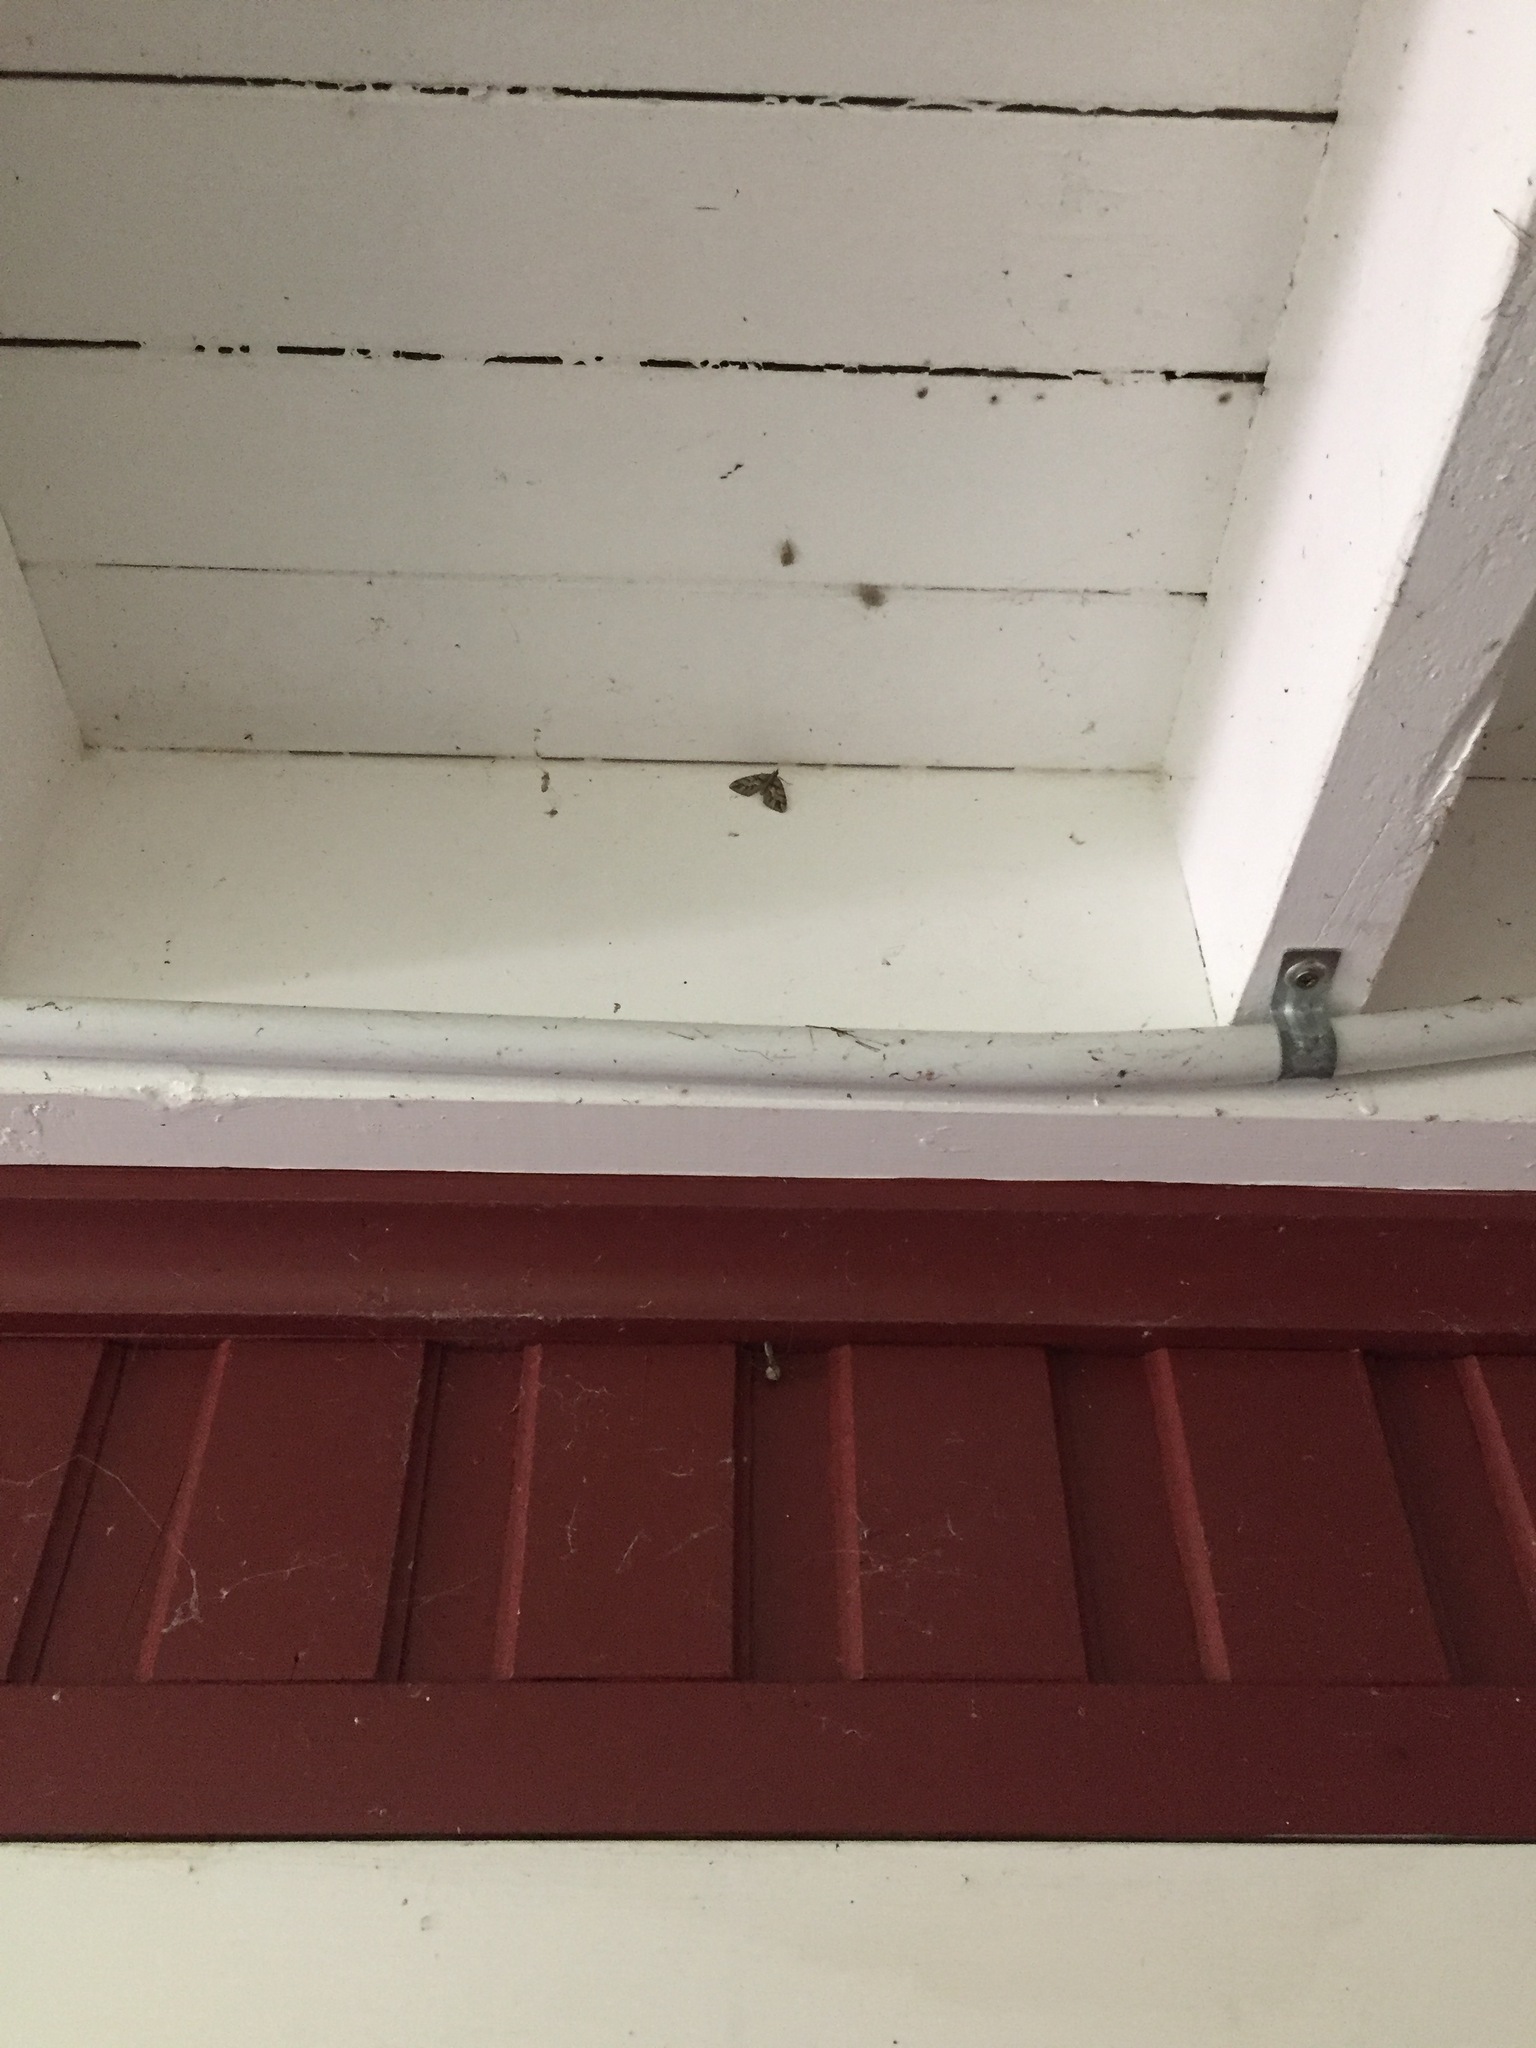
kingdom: Animalia
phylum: Arthropoda
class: Insecta
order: Lepidoptera
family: Geometridae
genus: Chalastra
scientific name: Chalastra aristarcha
